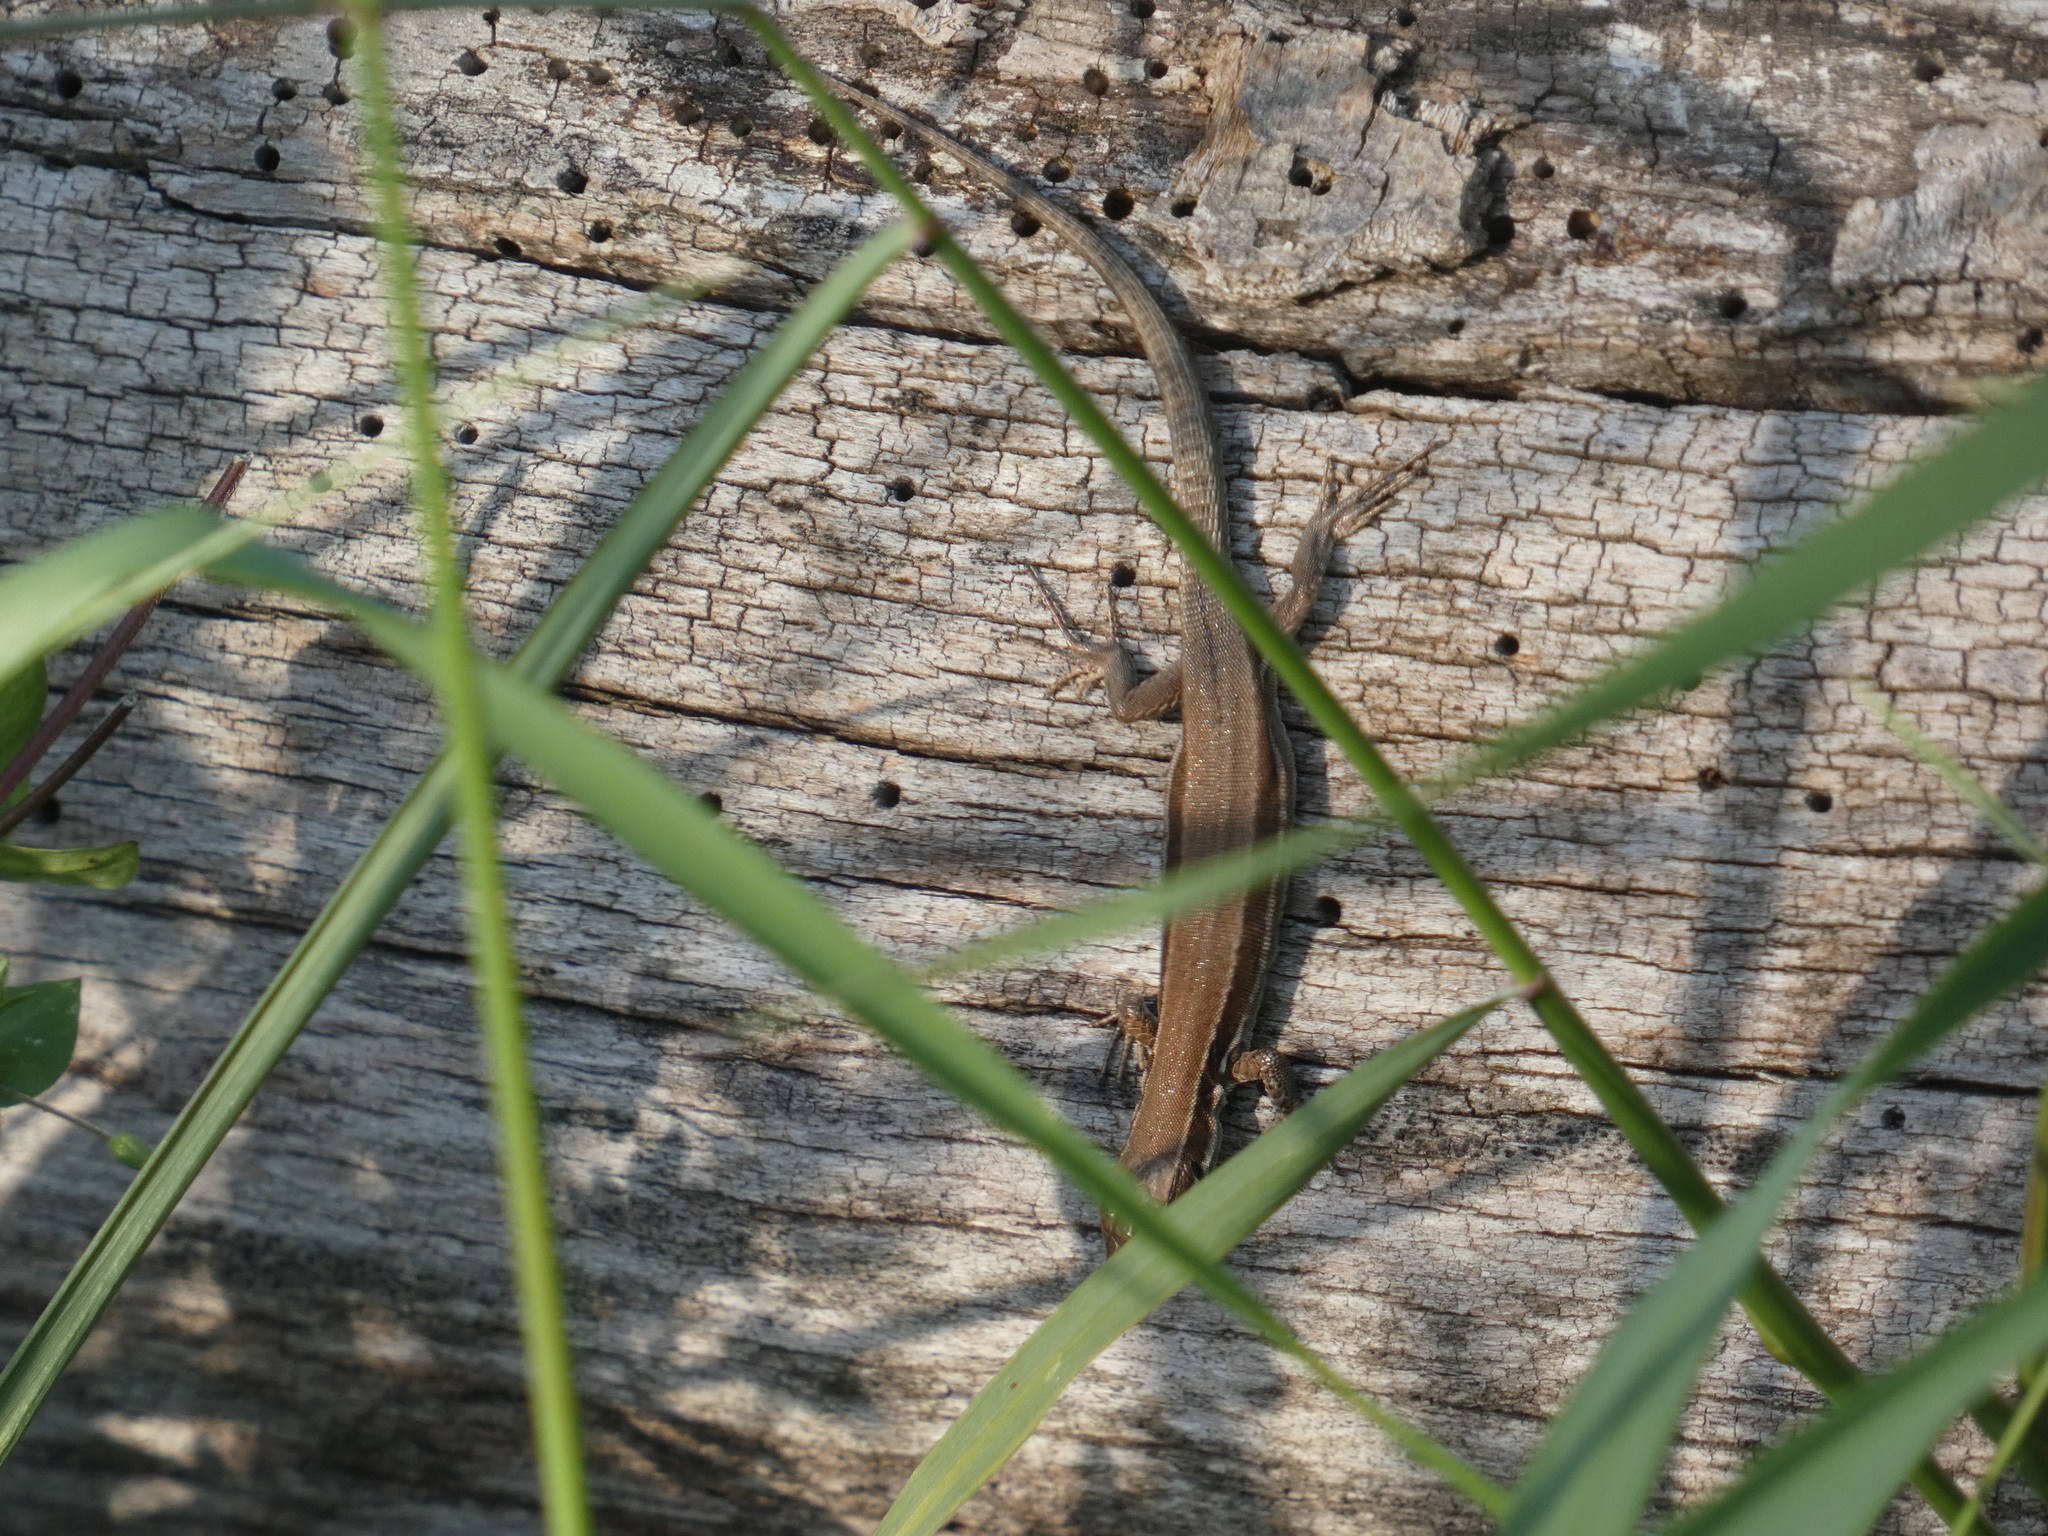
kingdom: Animalia
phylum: Chordata
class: Squamata
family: Lacertidae
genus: Podarcis
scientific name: Podarcis muralis
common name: Common wall lizard
